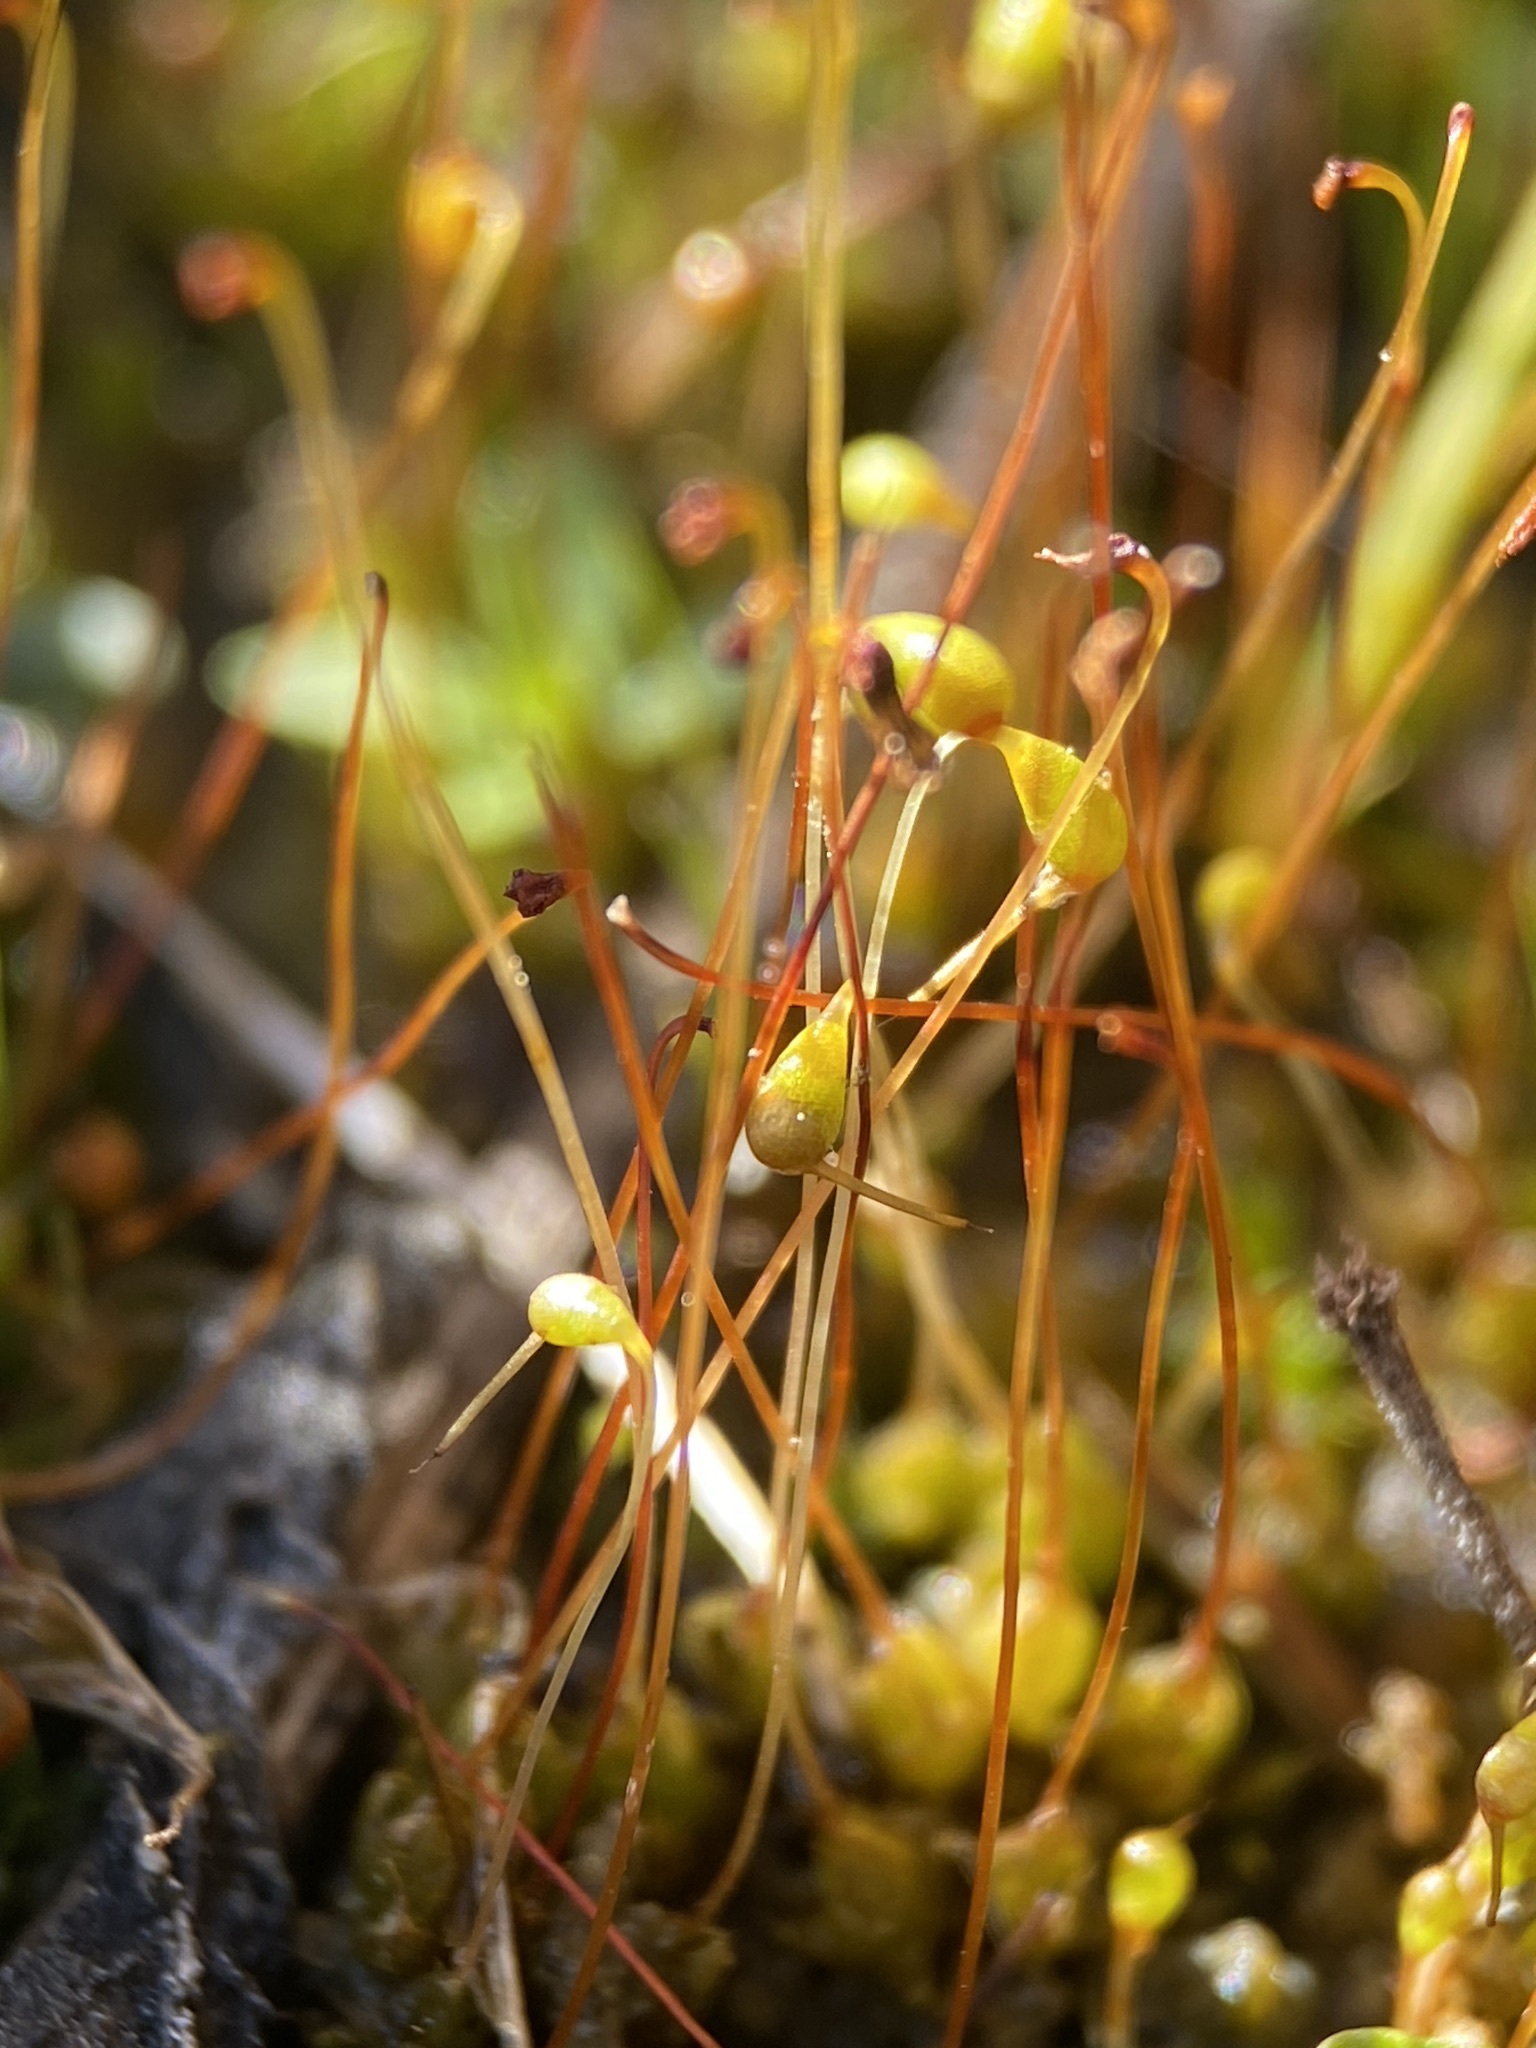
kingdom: Plantae
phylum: Bryophyta
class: Bryopsida
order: Funariales
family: Funariaceae
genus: Funaria
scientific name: Funaria hygrometrica
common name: Common cord moss
